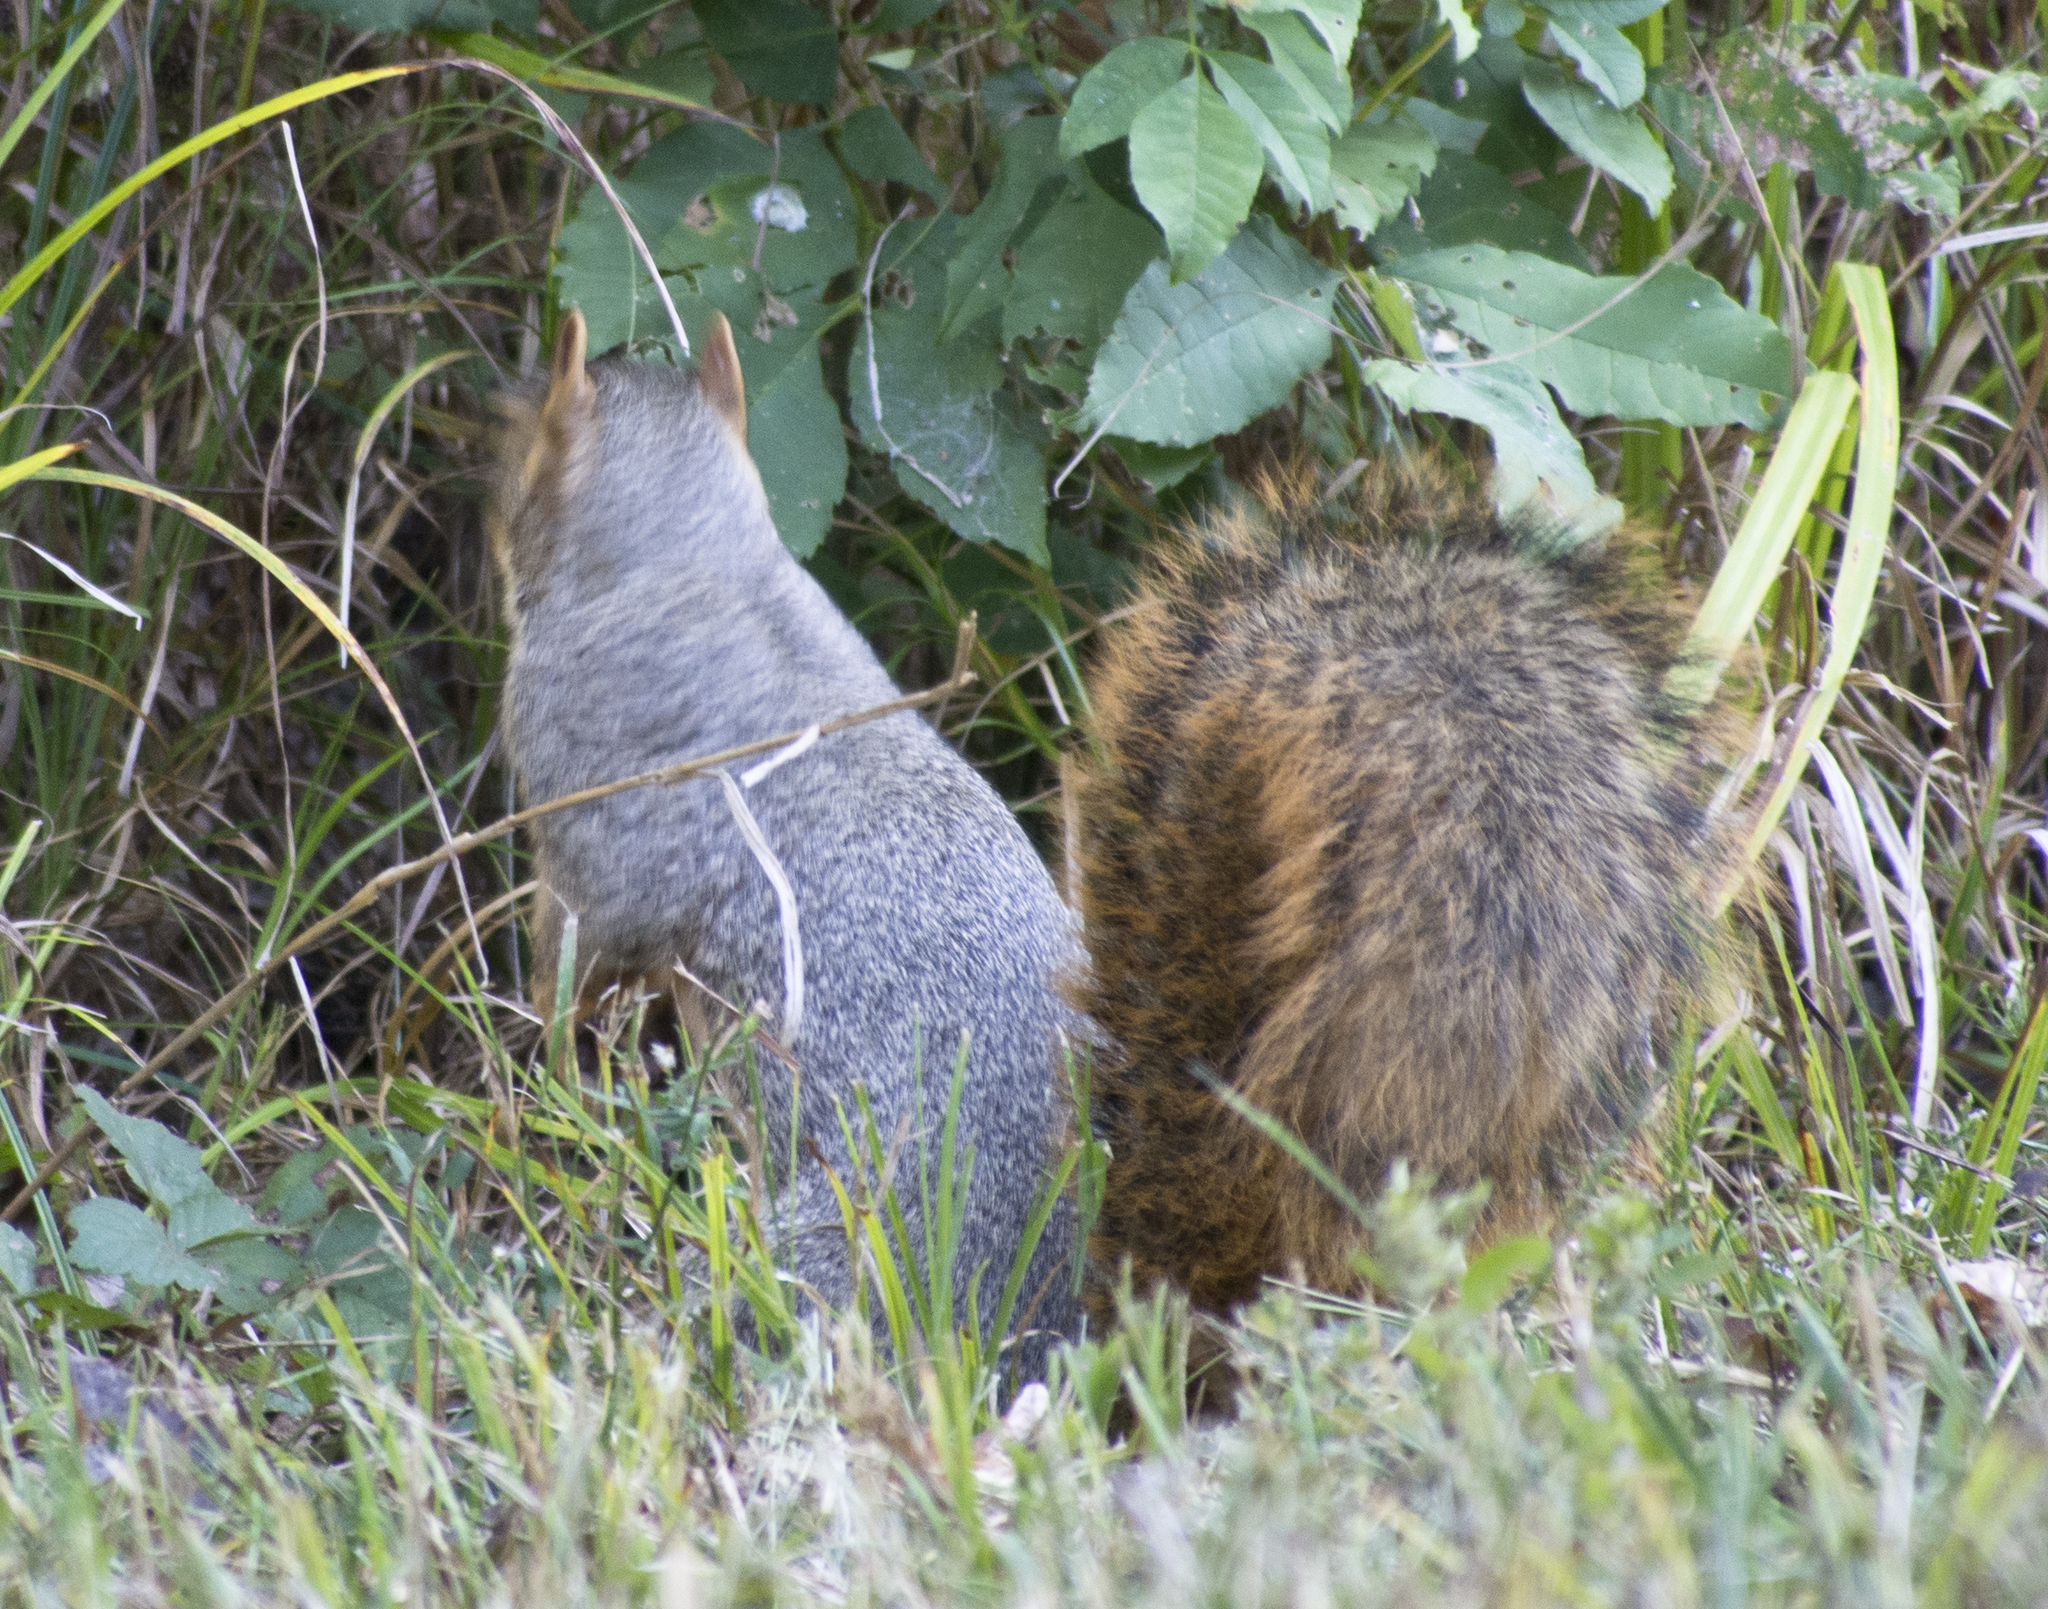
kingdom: Animalia
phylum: Chordata
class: Mammalia
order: Rodentia
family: Sciuridae
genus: Sciurus
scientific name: Sciurus niger
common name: Fox squirrel
